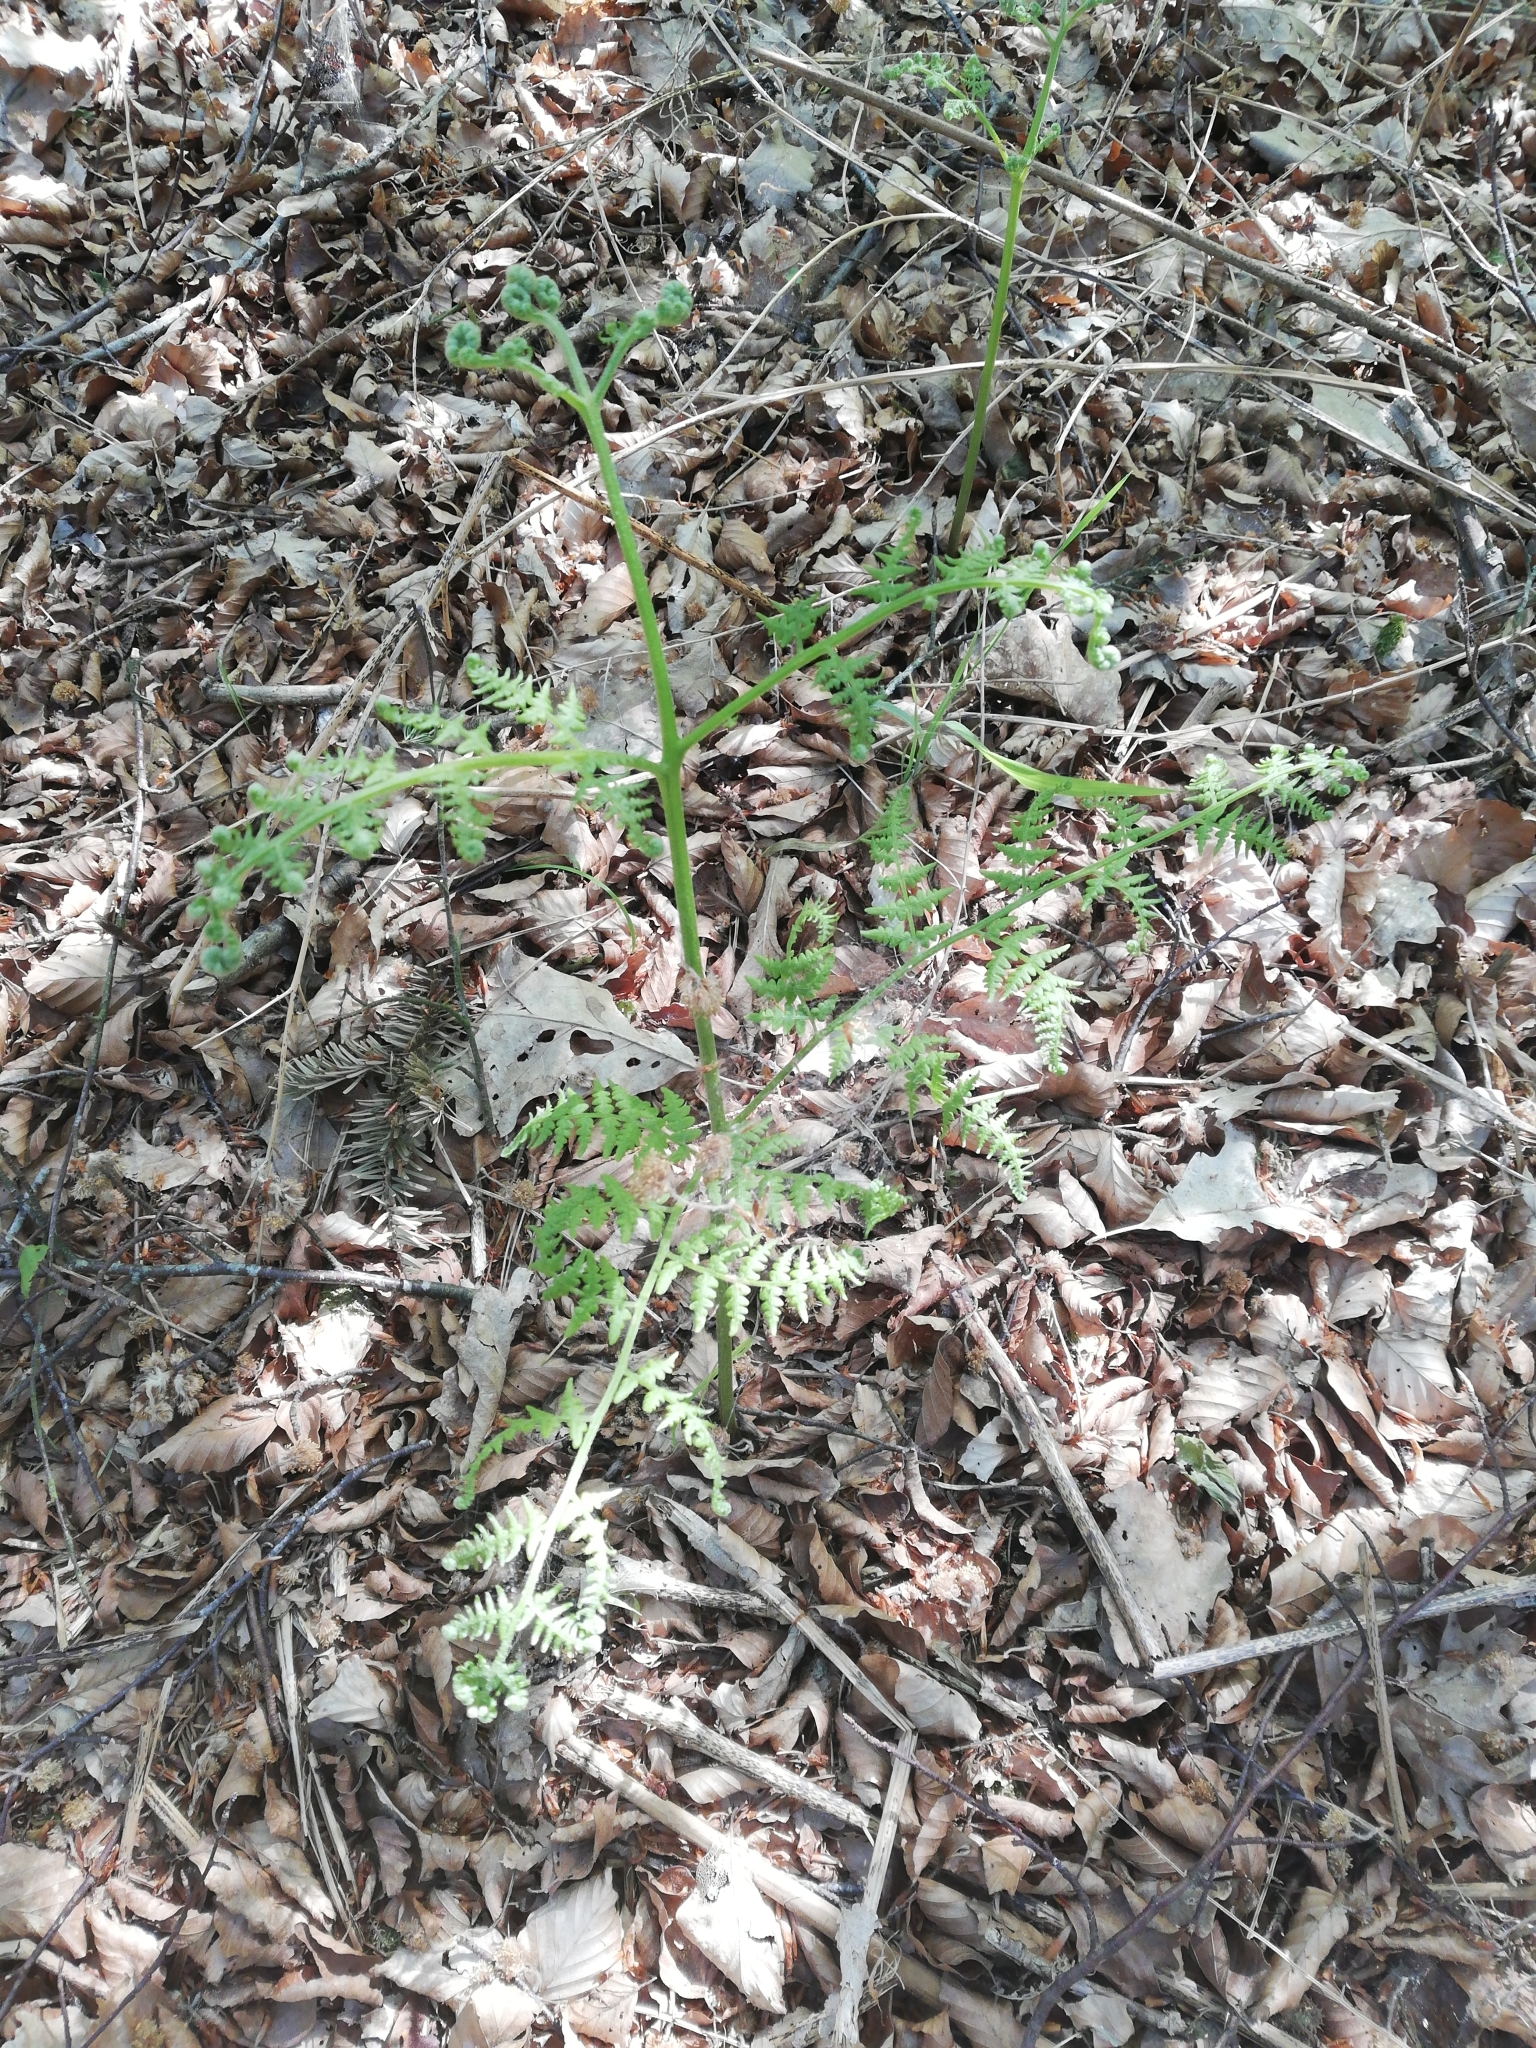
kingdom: Plantae
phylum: Tracheophyta
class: Polypodiopsida
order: Polypodiales
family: Dennstaedtiaceae
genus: Pteridium
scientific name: Pteridium aquilinum
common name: Bracken
